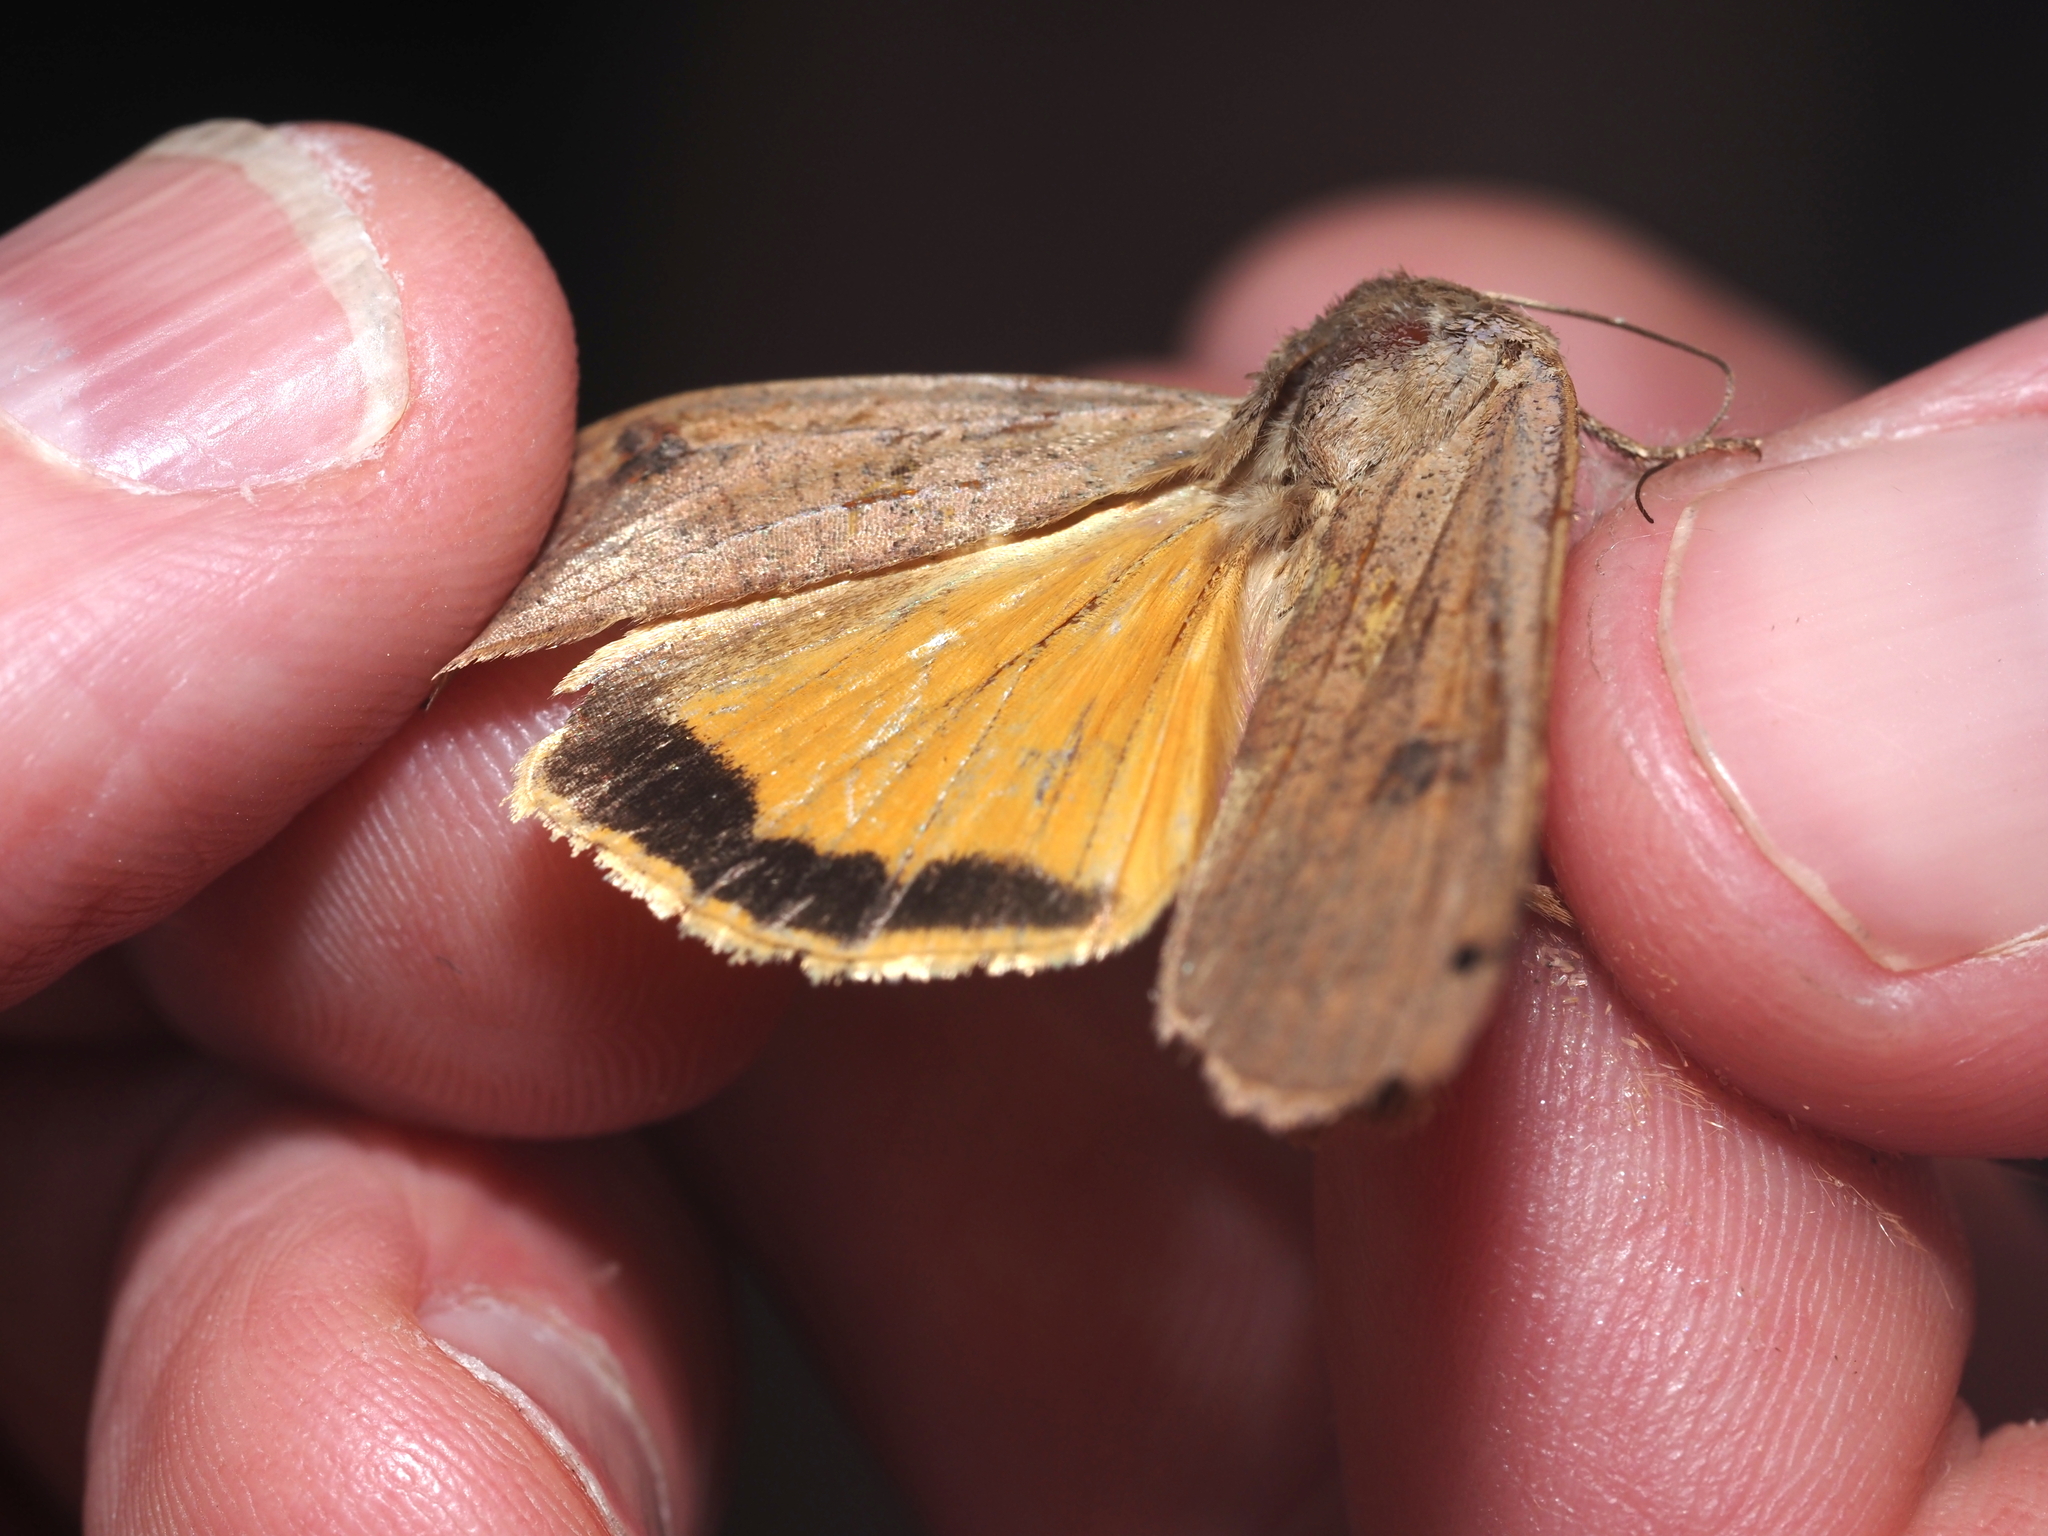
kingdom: Animalia
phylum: Arthropoda
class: Insecta
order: Lepidoptera
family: Noctuidae
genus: Noctua
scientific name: Noctua pronuba
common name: Large yellow underwing
